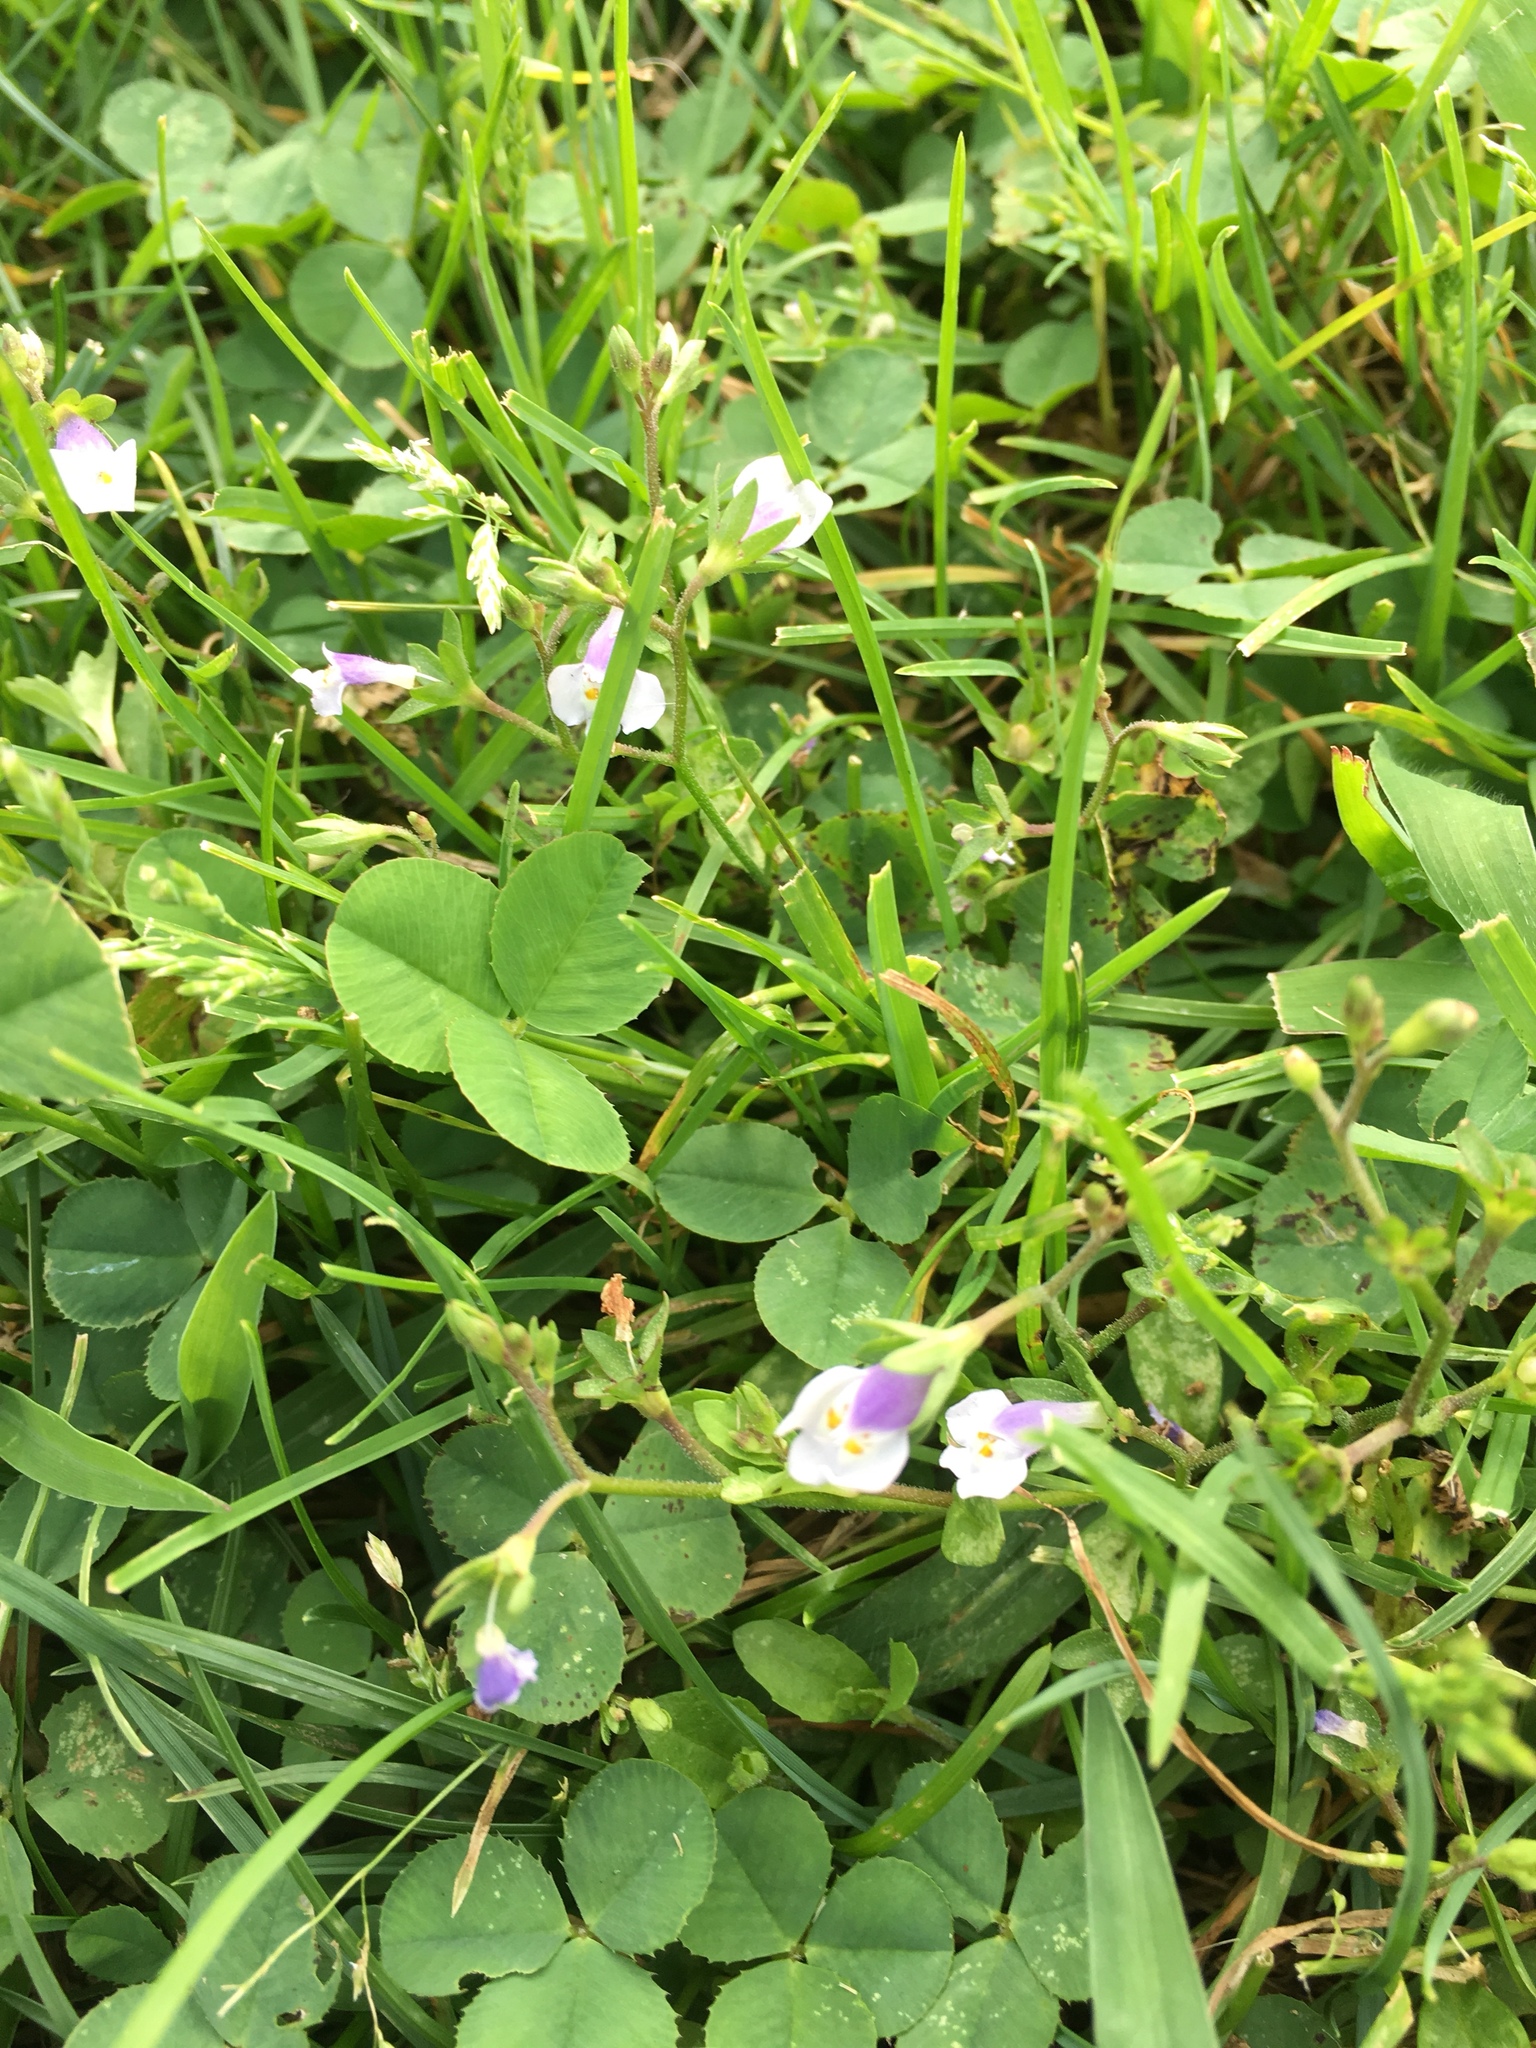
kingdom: Plantae
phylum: Tracheophyta
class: Magnoliopsida
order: Lamiales
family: Mazaceae
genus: Mazus
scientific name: Mazus pumilus
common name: Japanese mazus
